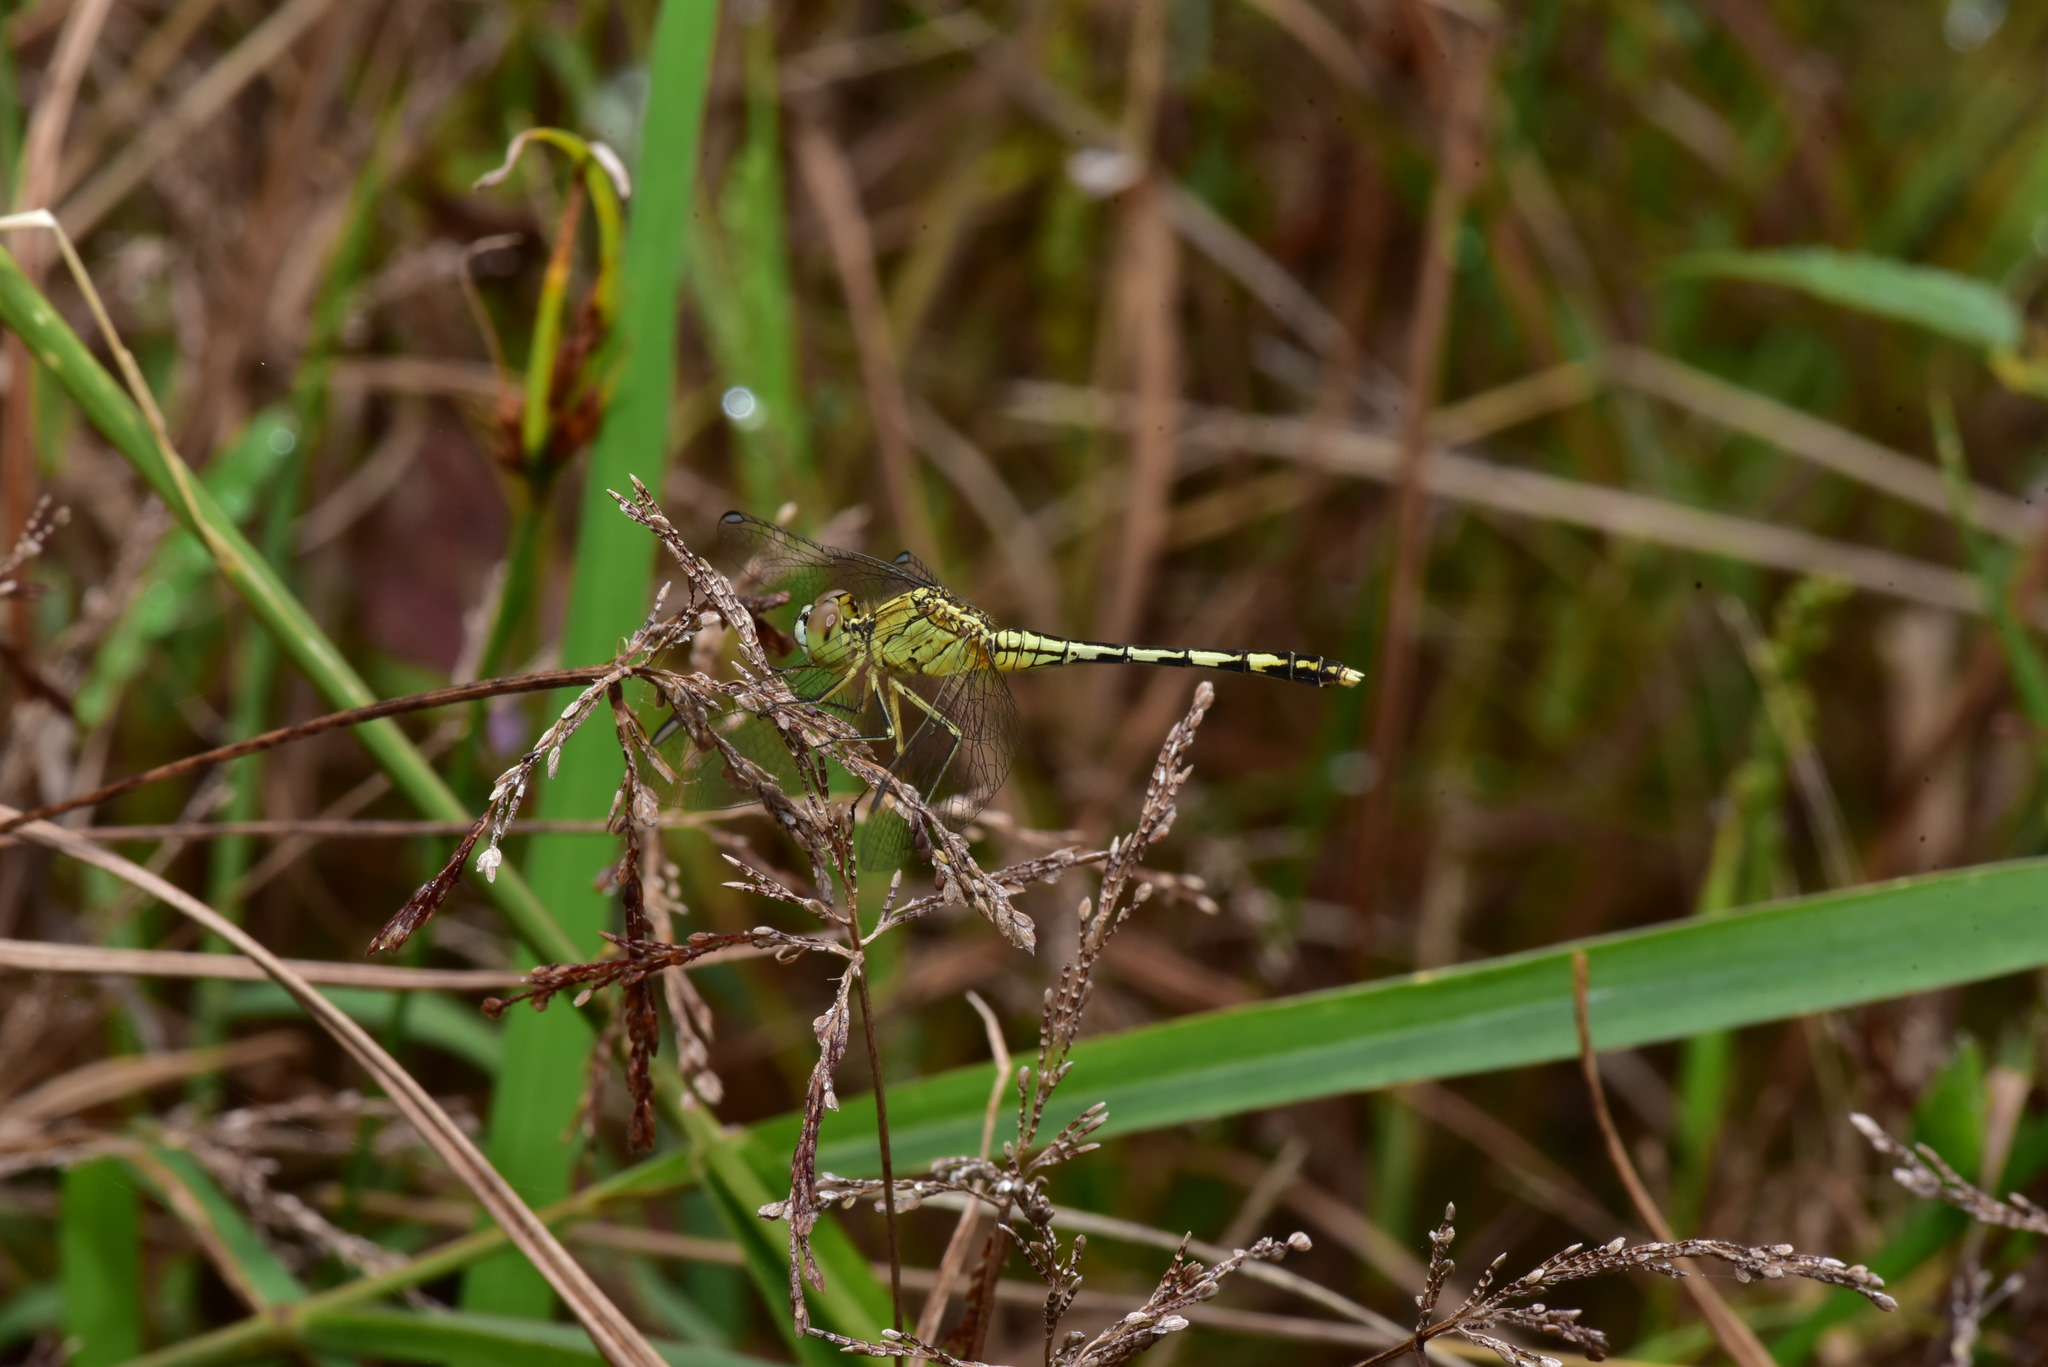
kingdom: Animalia
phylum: Arthropoda
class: Insecta
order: Odonata
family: Libellulidae
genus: Diplacodes
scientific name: Diplacodes trivialis
